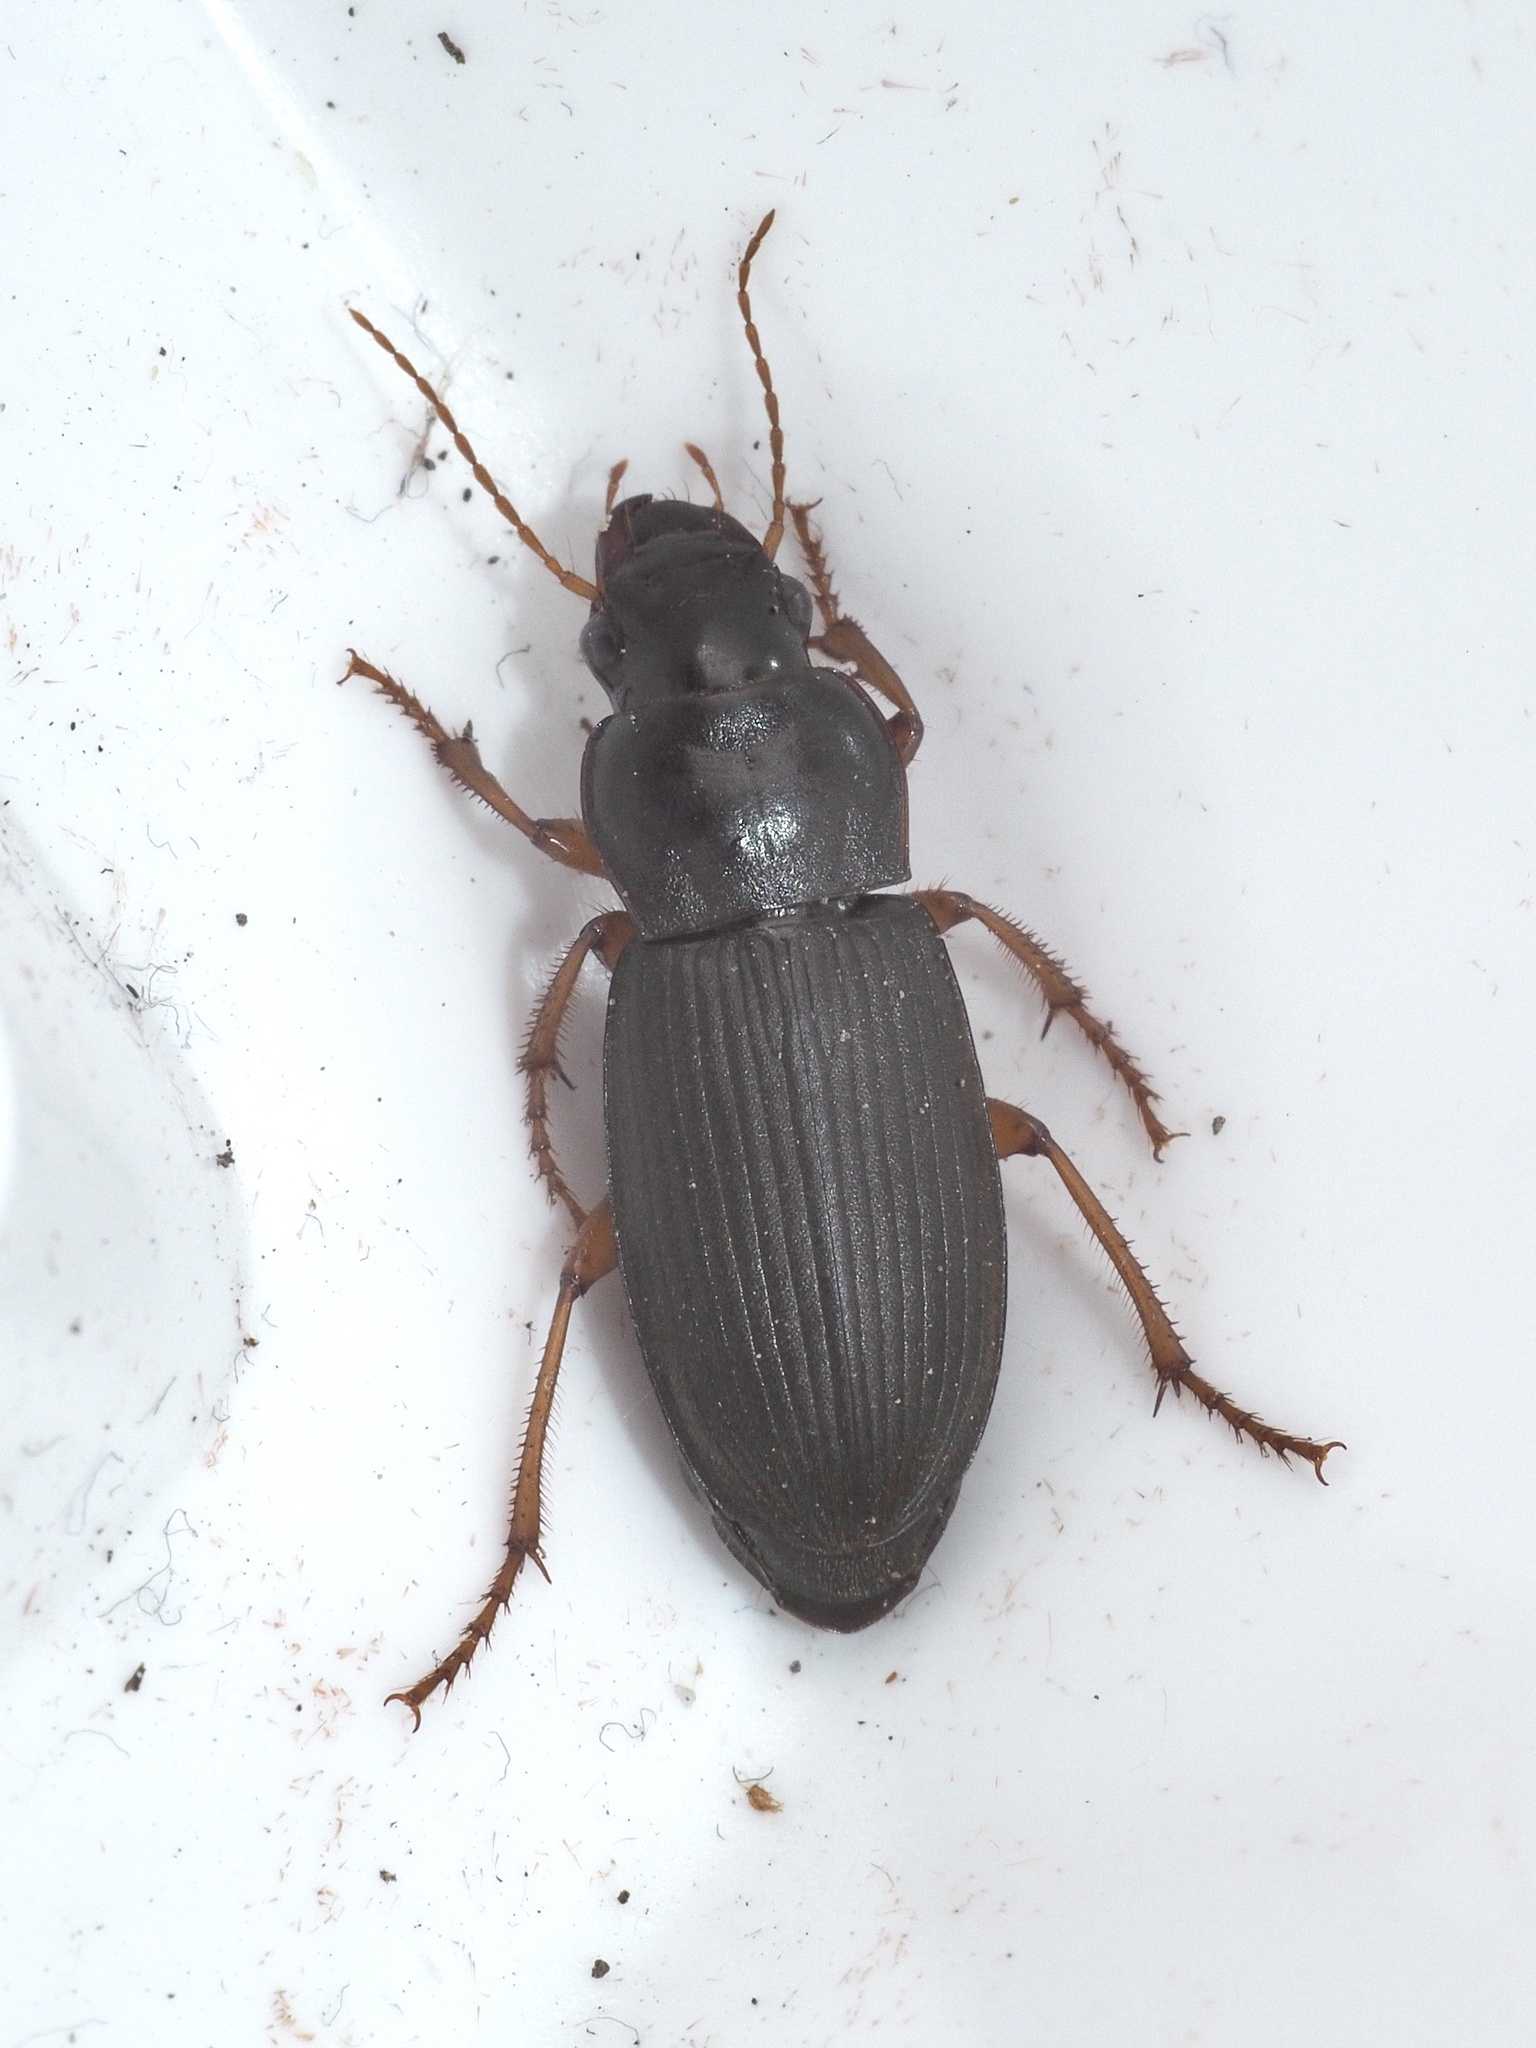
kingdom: Animalia
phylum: Arthropoda
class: Insecta
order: Coleoptera
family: Carabidae
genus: Harpalus
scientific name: Harpalus rufipes
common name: Strawberry harp ground beetle
